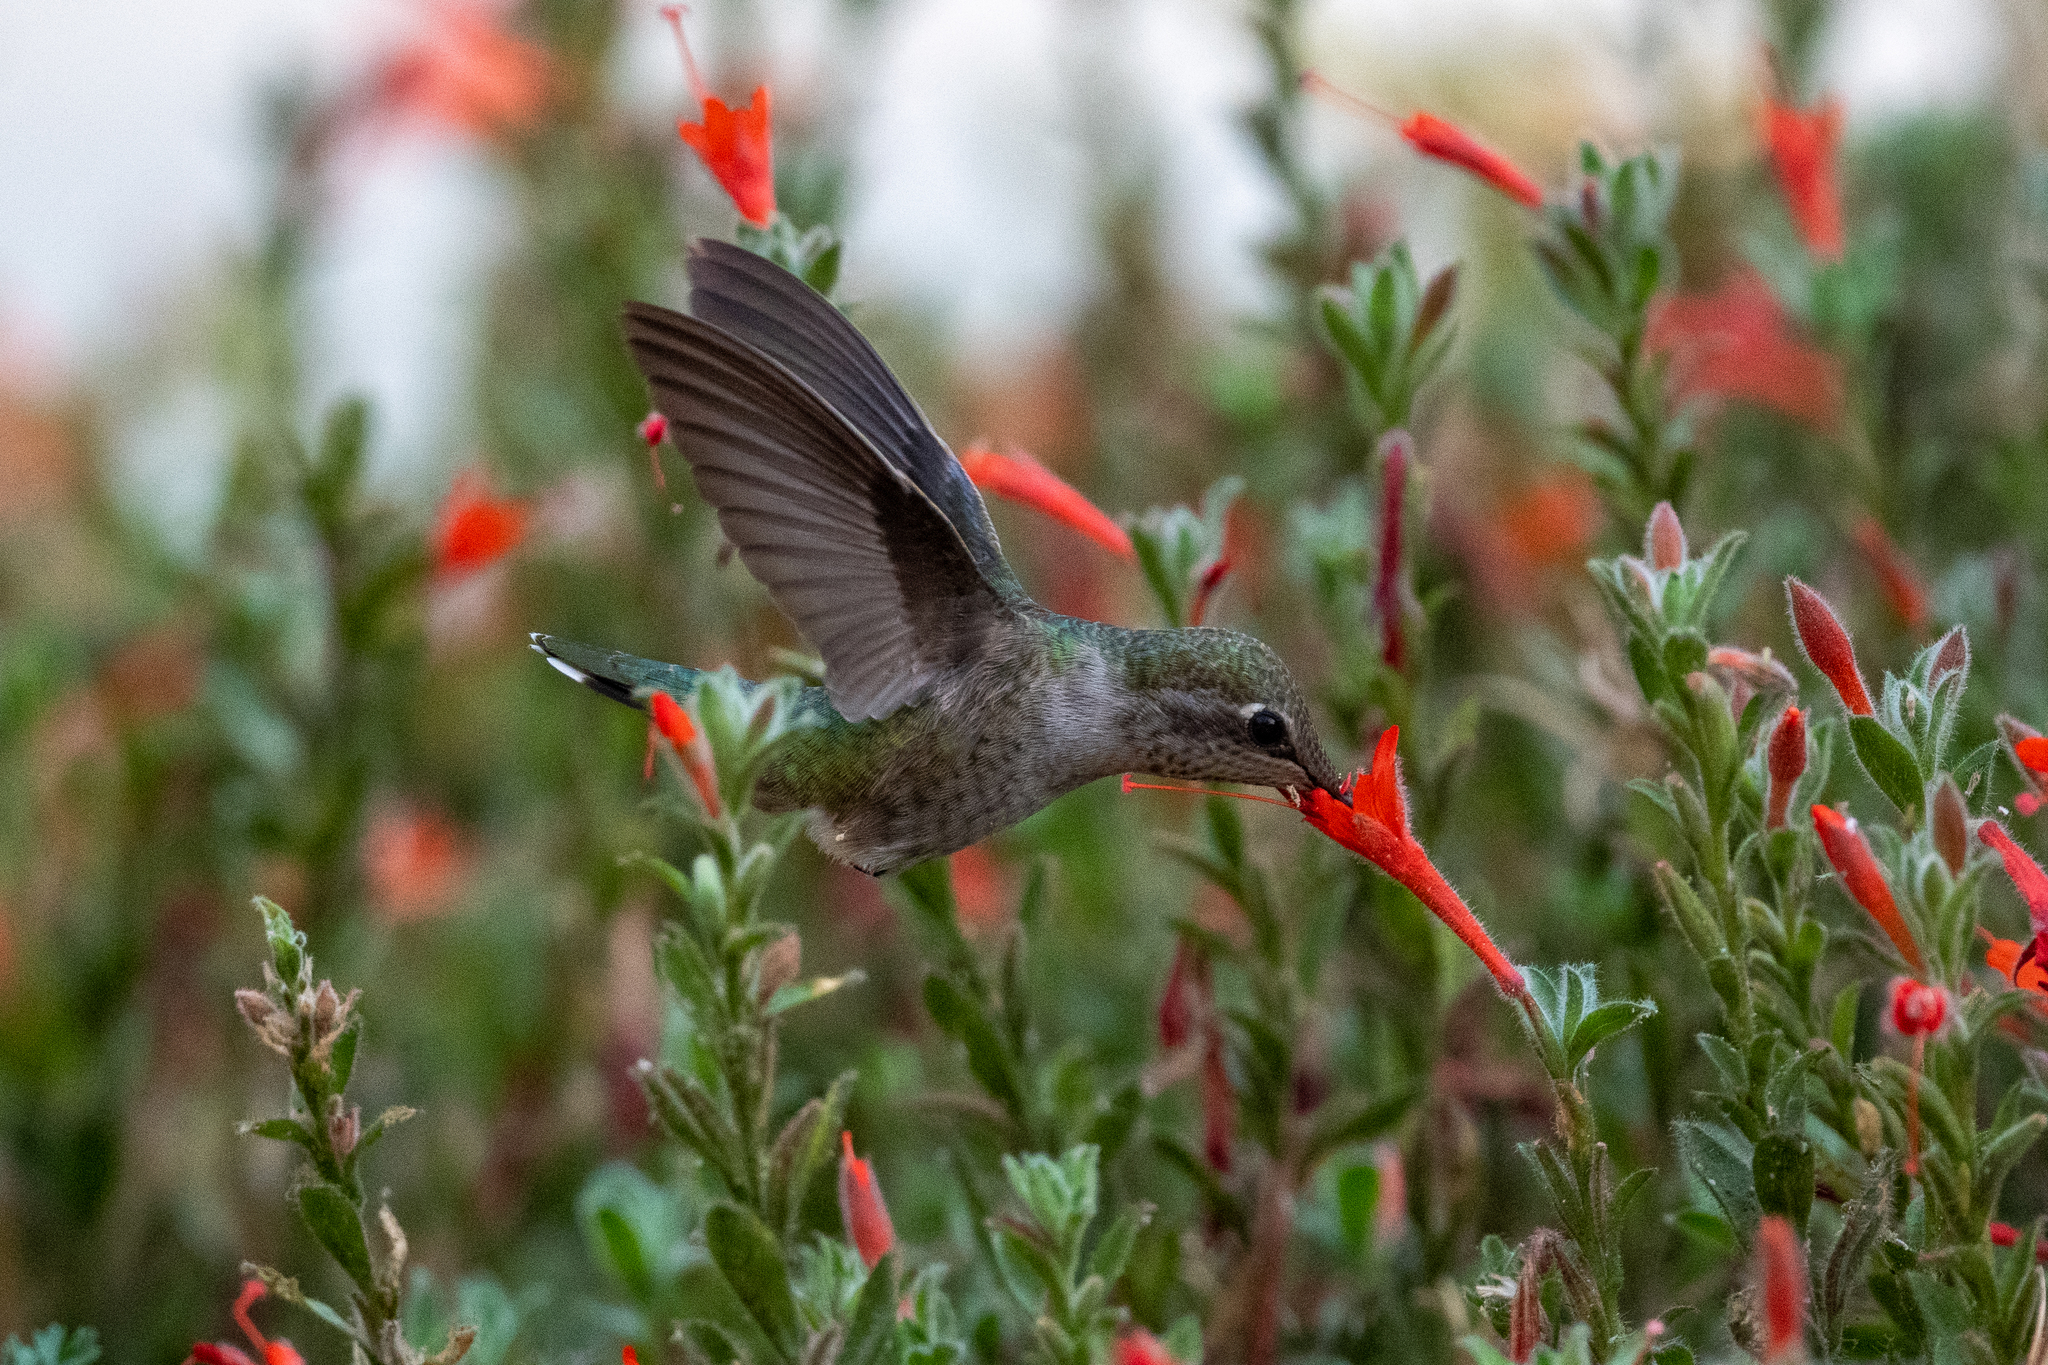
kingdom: Animalia
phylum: Chordata
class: Aves
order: Apodiformes
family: Trochilidae
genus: Calypte
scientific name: Calypte anna
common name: Anna's hummingbird
